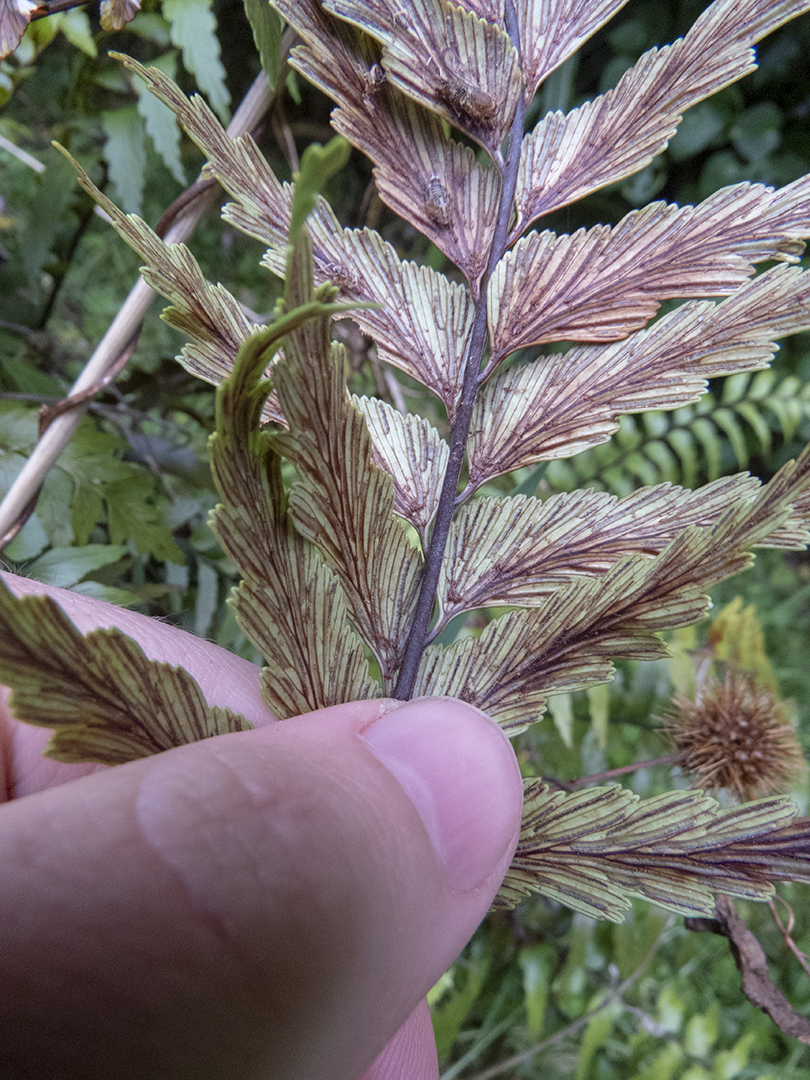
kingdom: Plantae
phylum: Tracheophyta
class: Polypodiopsida
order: Polypodiales
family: Aspleniaceae
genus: Asplenium
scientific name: Asplenium polyodon
